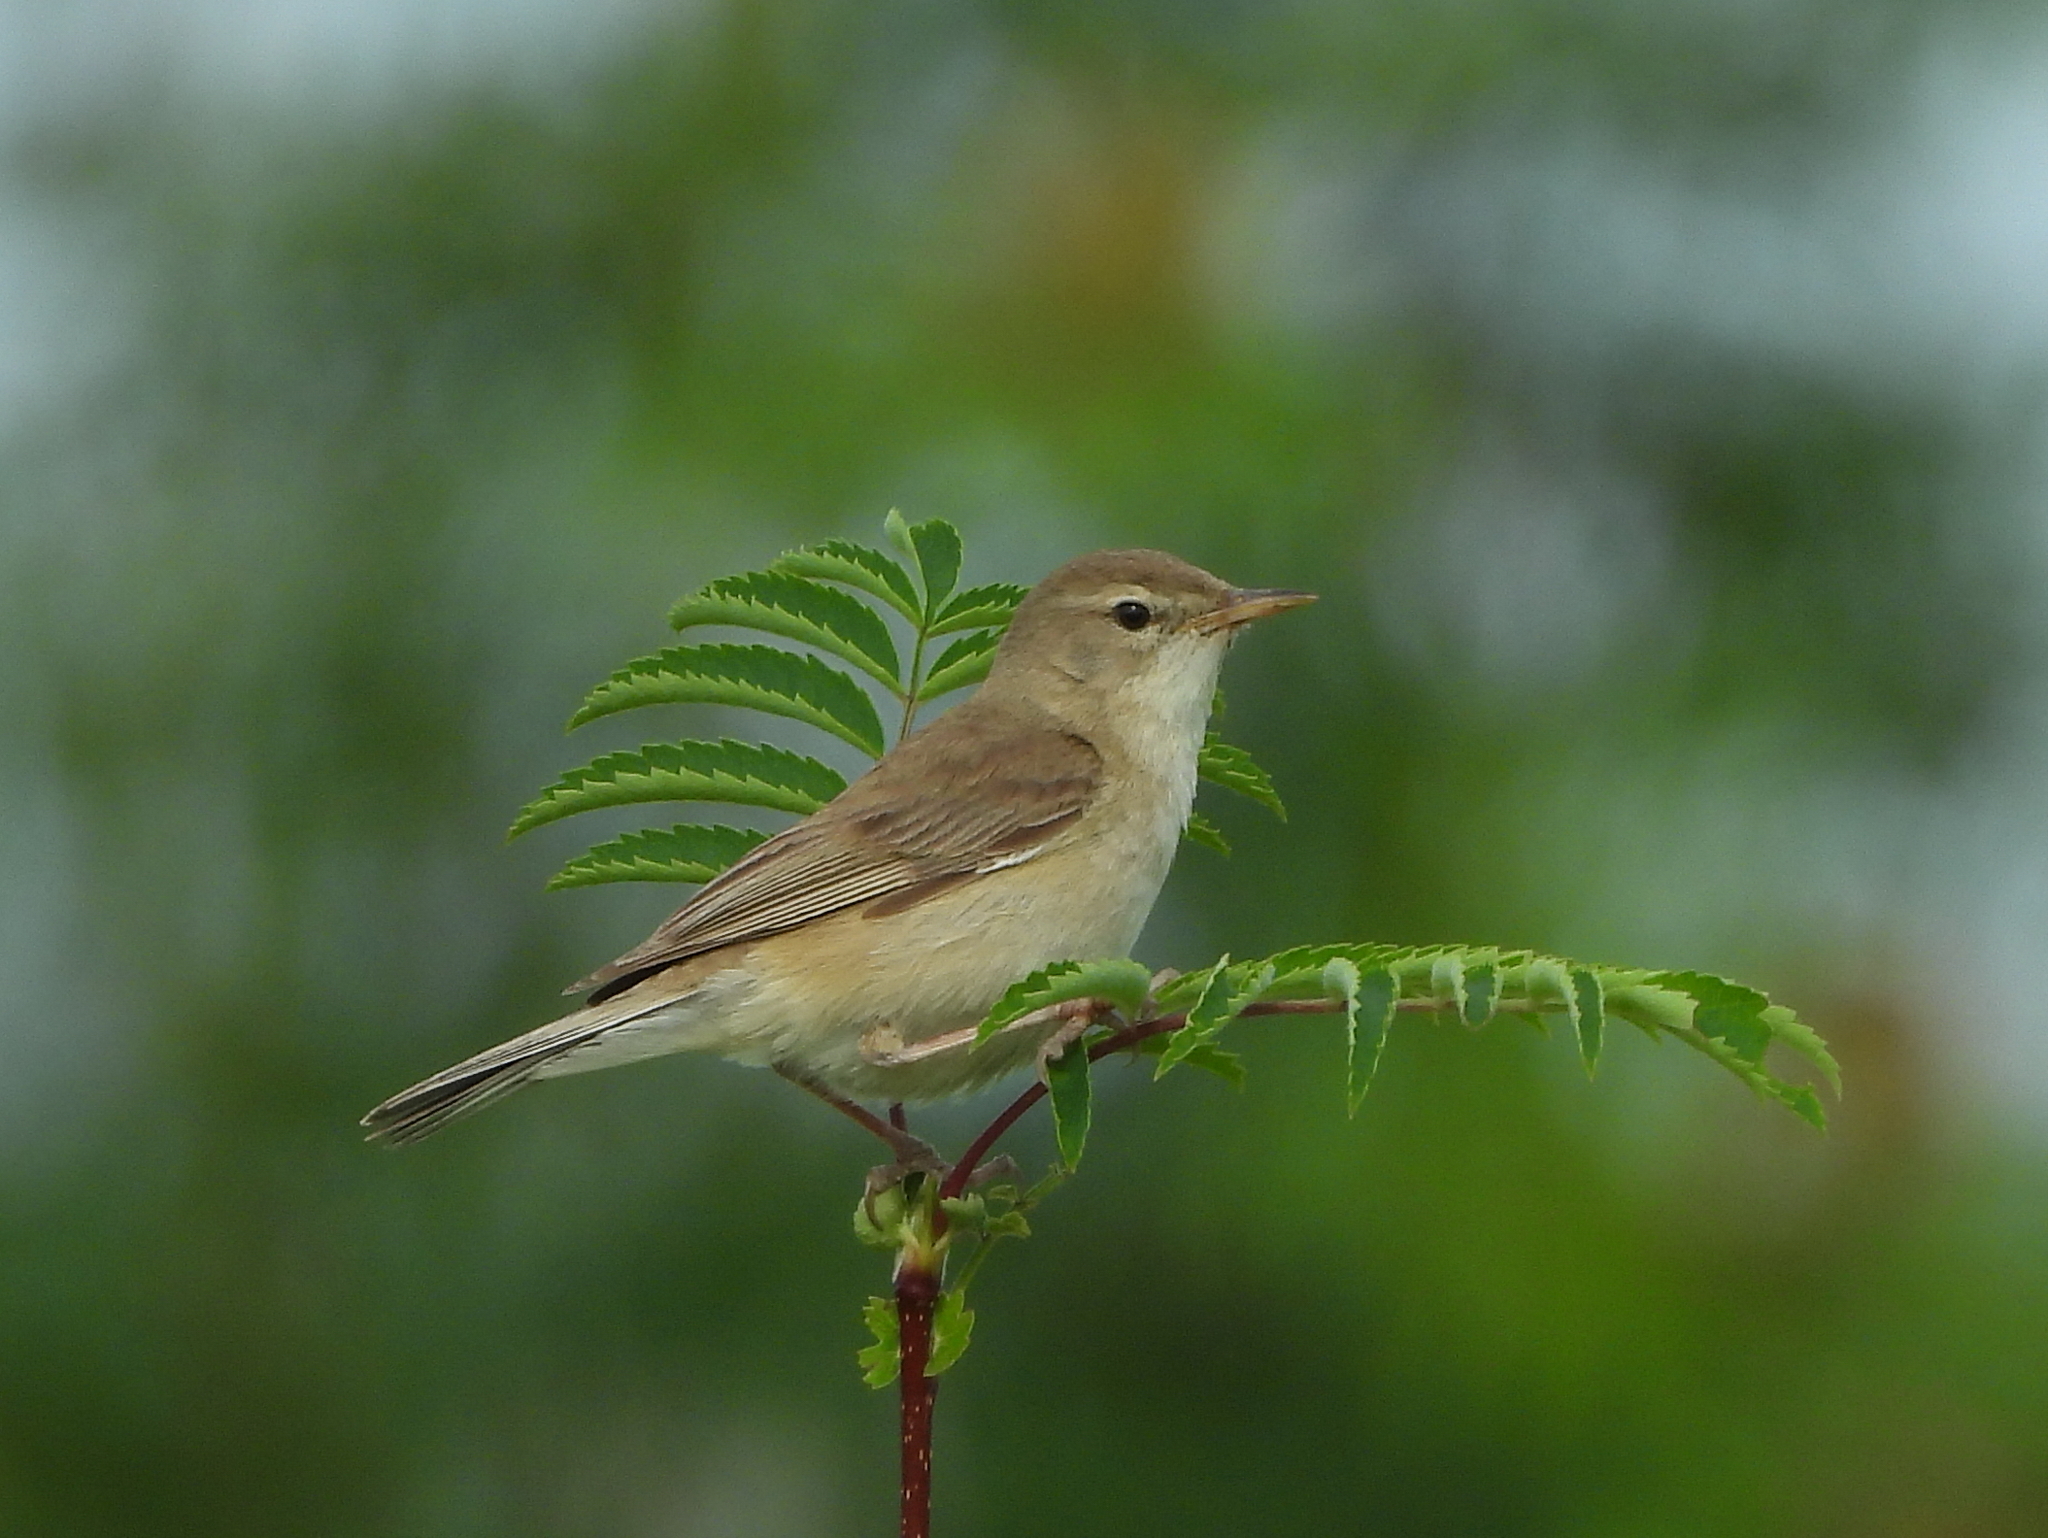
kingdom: Animalia
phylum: Chordata
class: Aves
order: Passeriformes
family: Acrocephalidae
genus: Iduna
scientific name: Iduna caligata
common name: Booted warbler
